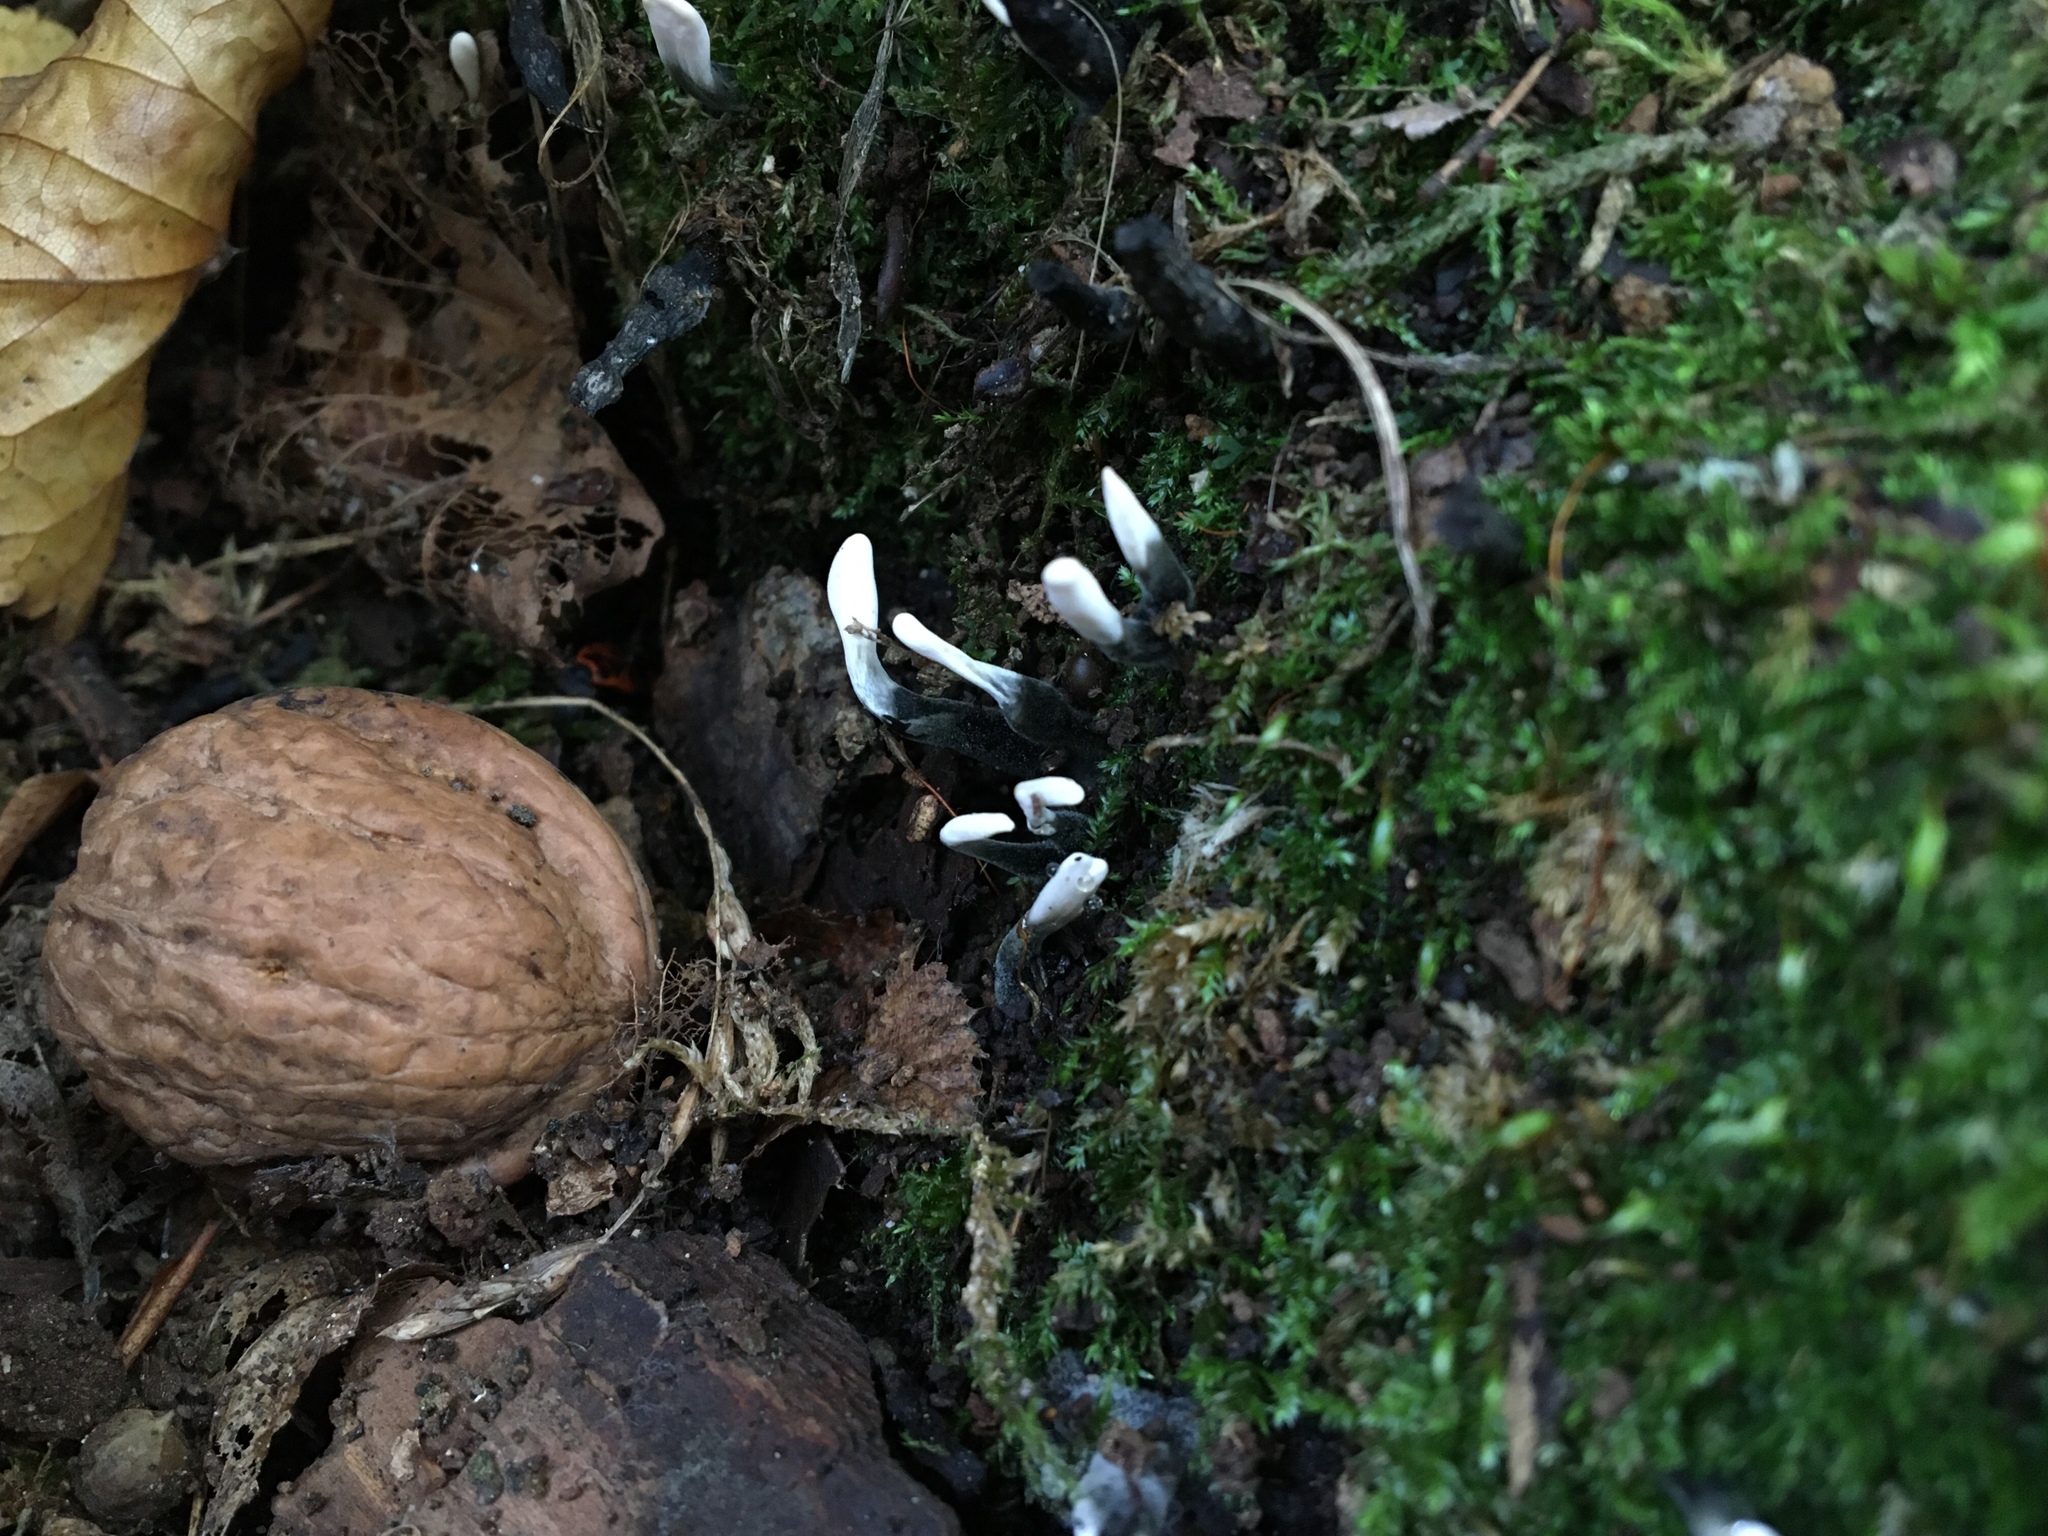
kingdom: Fungi
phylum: Ascomycota
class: Sordariomycetes
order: Xylariales
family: Xylariaceae
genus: Xylaria
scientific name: Xylaria hypoxylon
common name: Candle-snuff fungus
